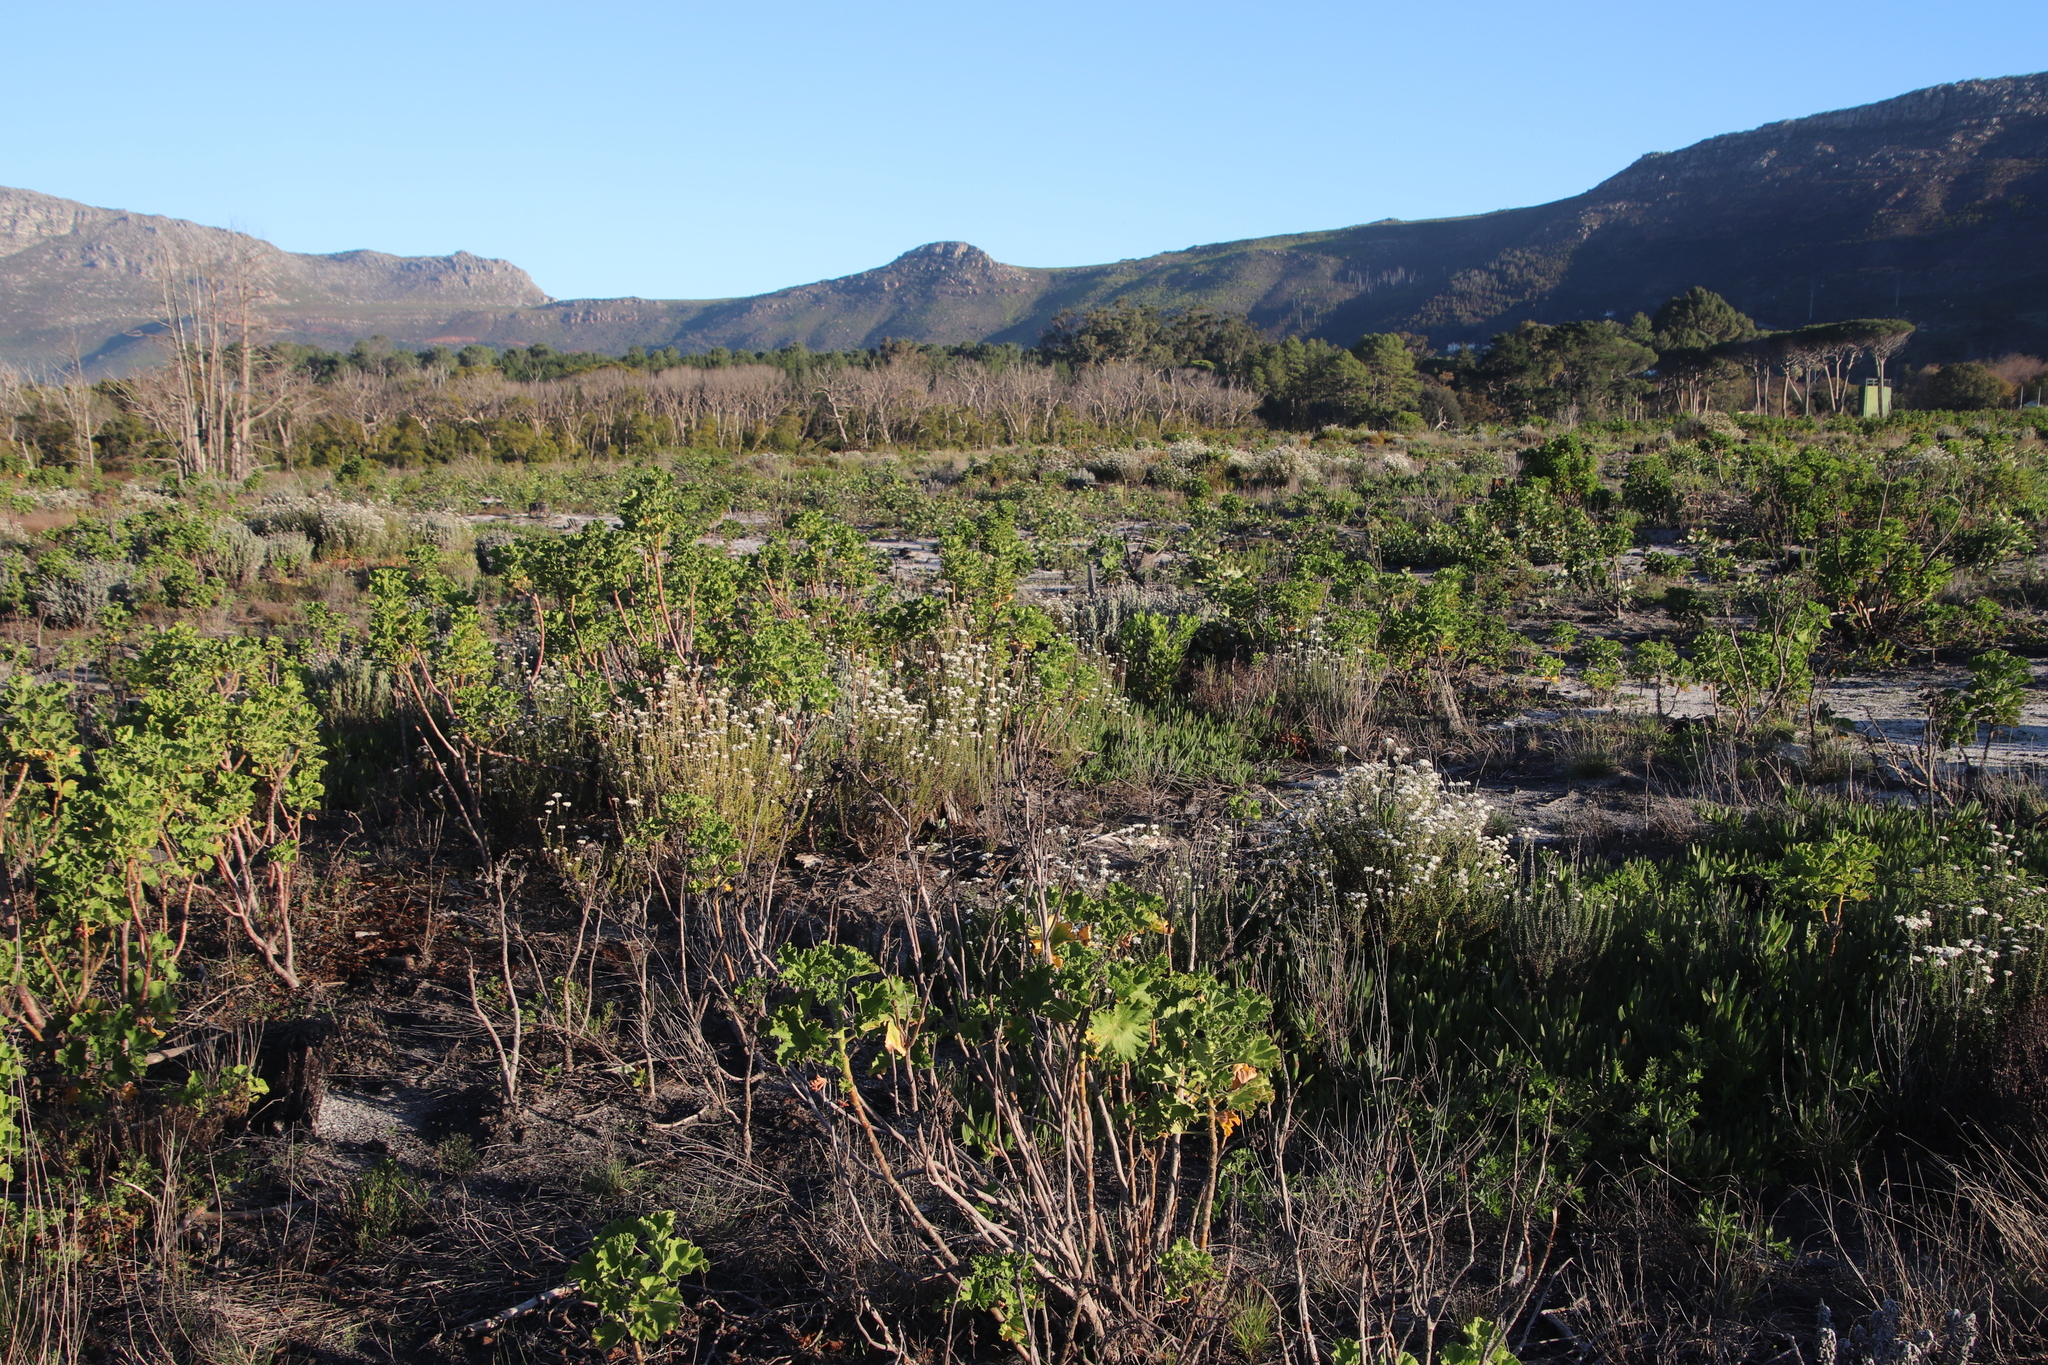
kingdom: Plantae
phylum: Tracheophyta
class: Magnoliopsida
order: Asterales
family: Asteraceae
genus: Metalasia
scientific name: Metalasia densa
